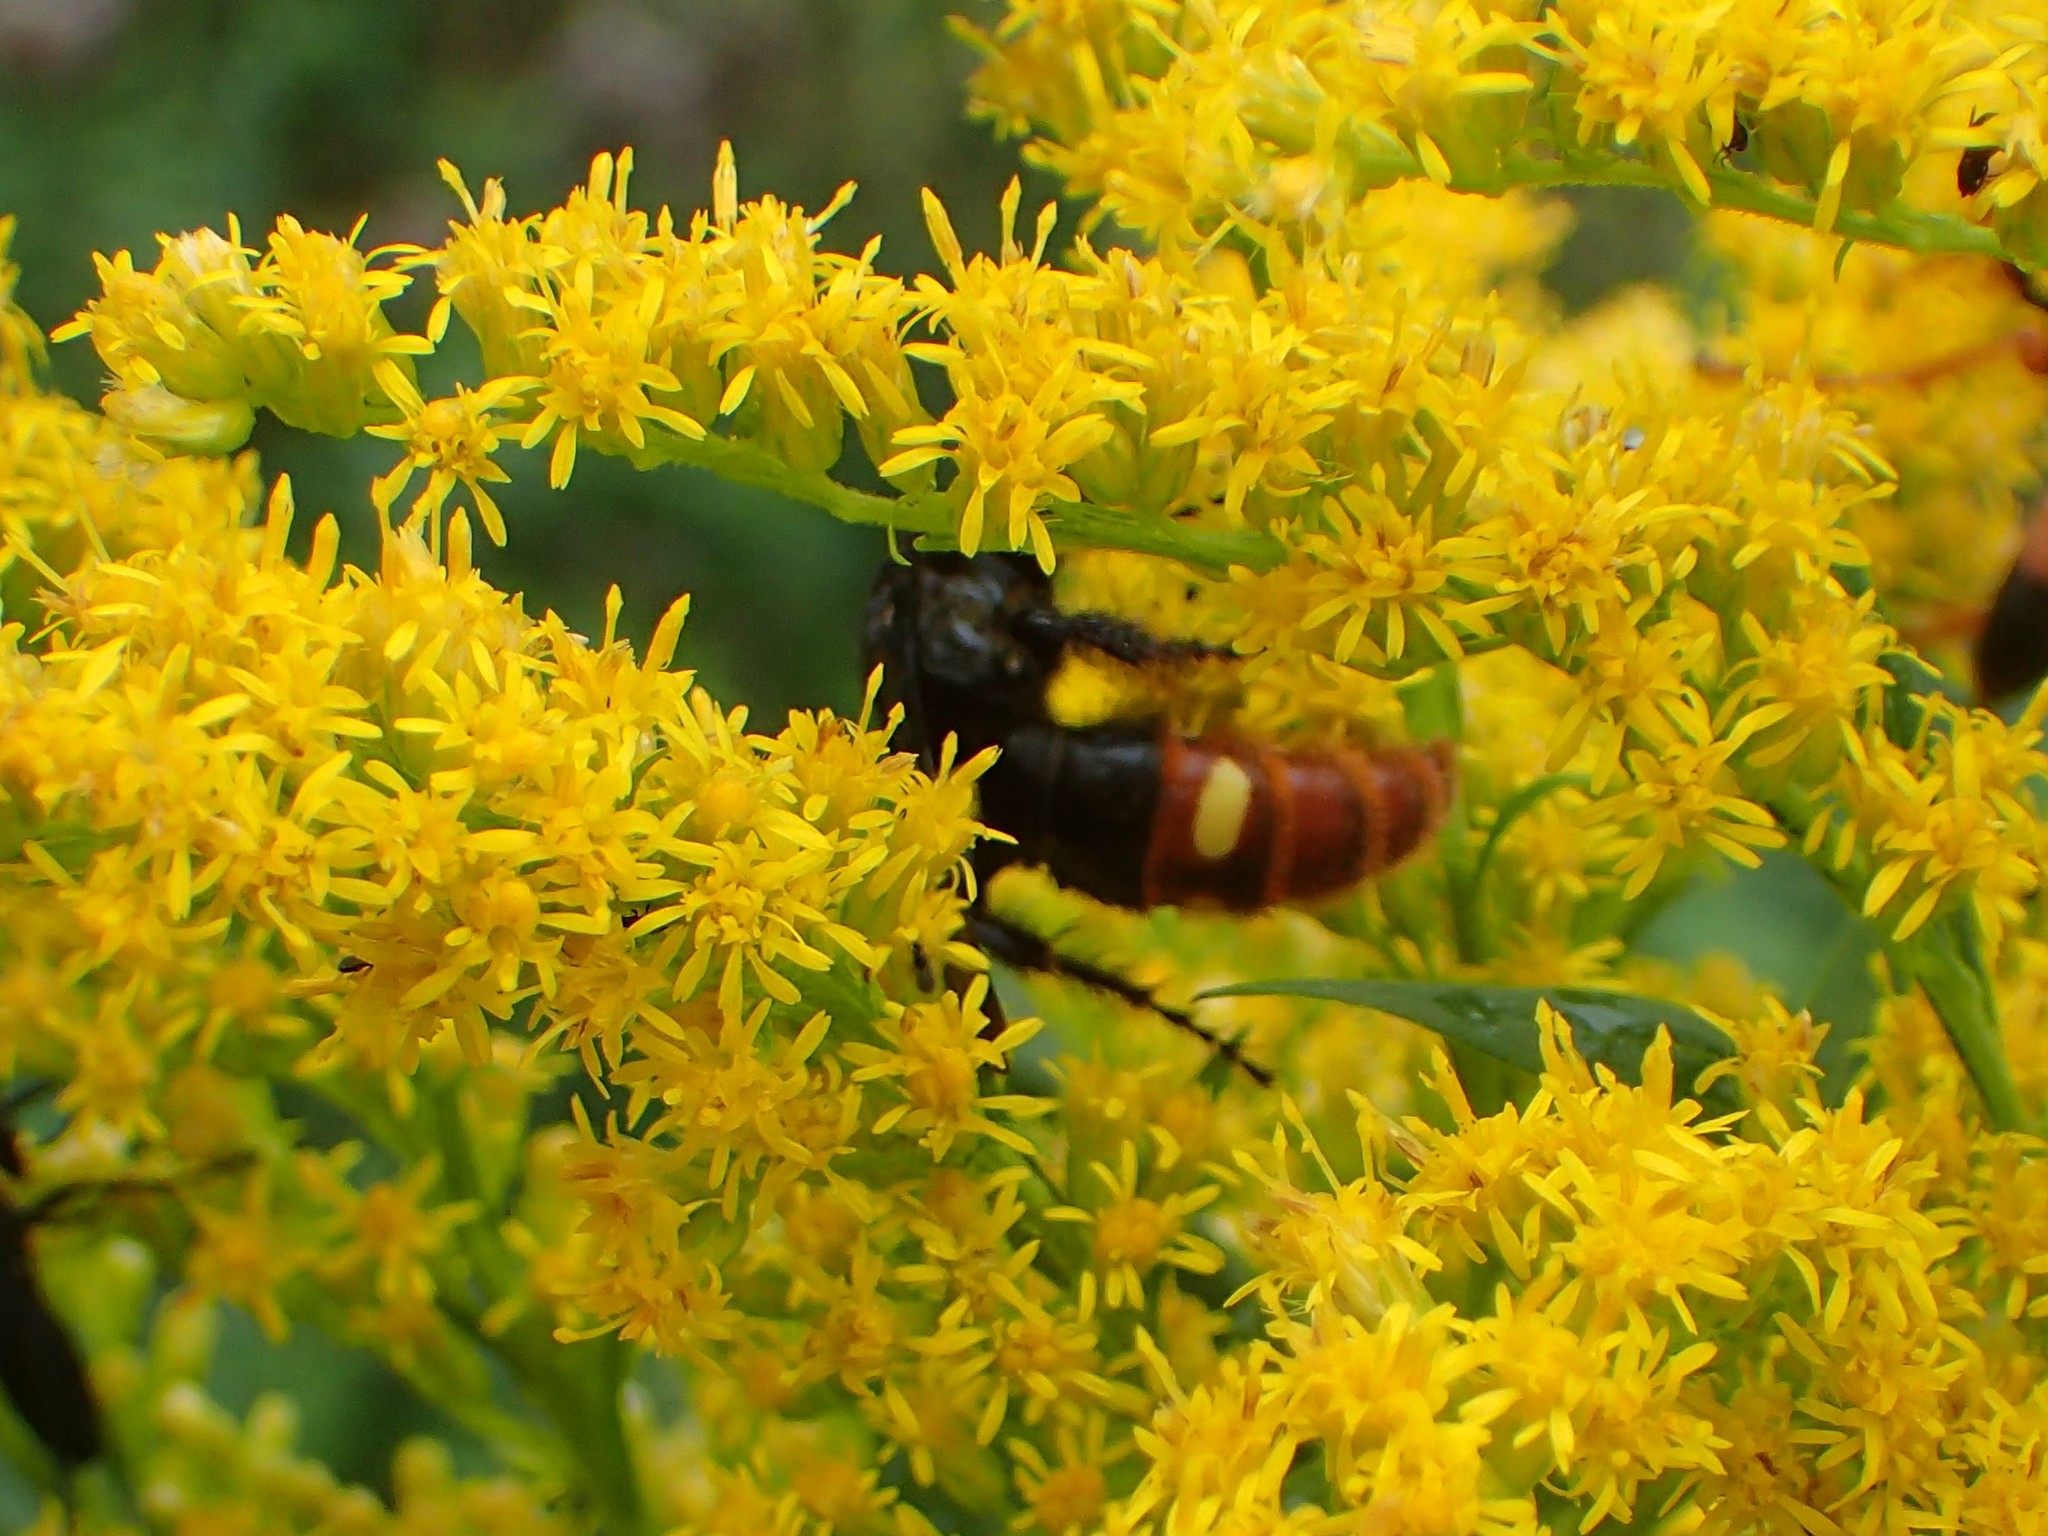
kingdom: Animalia
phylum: Arthropoda
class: Insecta
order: Hymenoptera
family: Scoliidae
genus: Scolia
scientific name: Scolia dubia
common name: Blue-winged scoliid wasp
